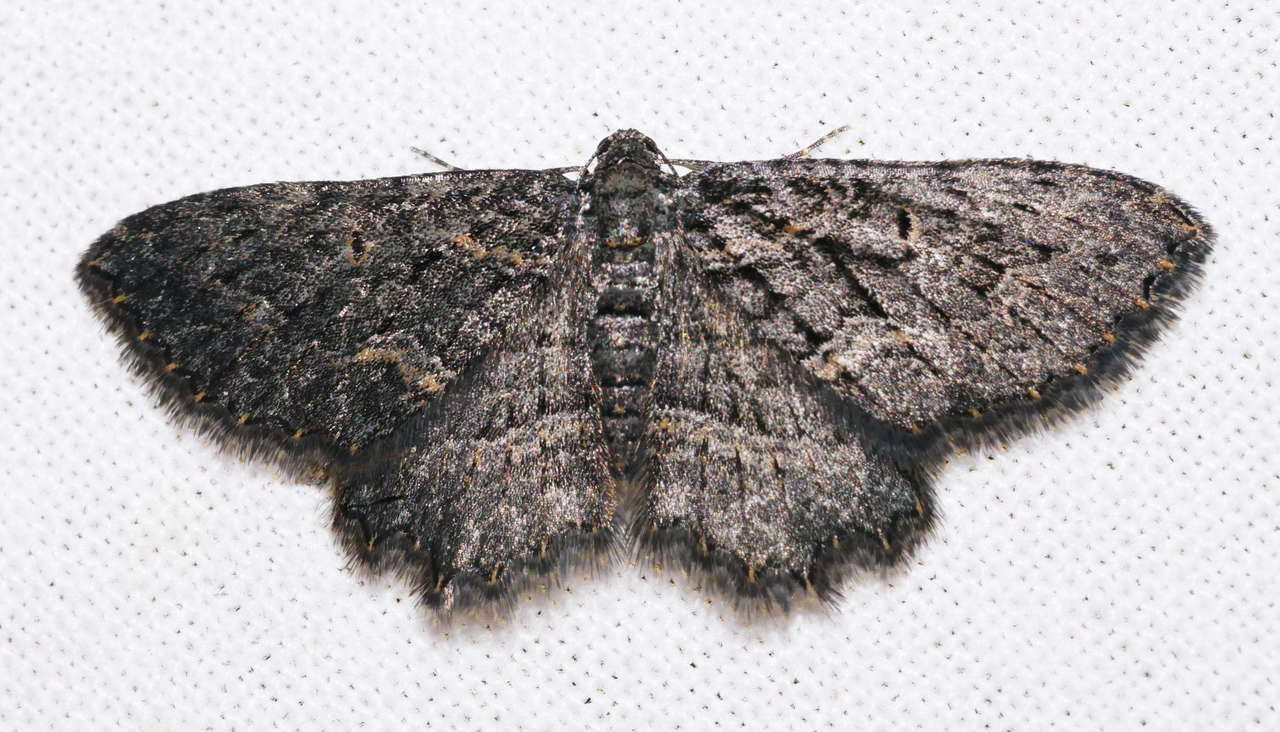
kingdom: Animalia
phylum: Arthropoda
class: Insecta
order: Lepidoptera
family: Geometridae
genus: Eccymatoge
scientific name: Eccymatoge morphna
